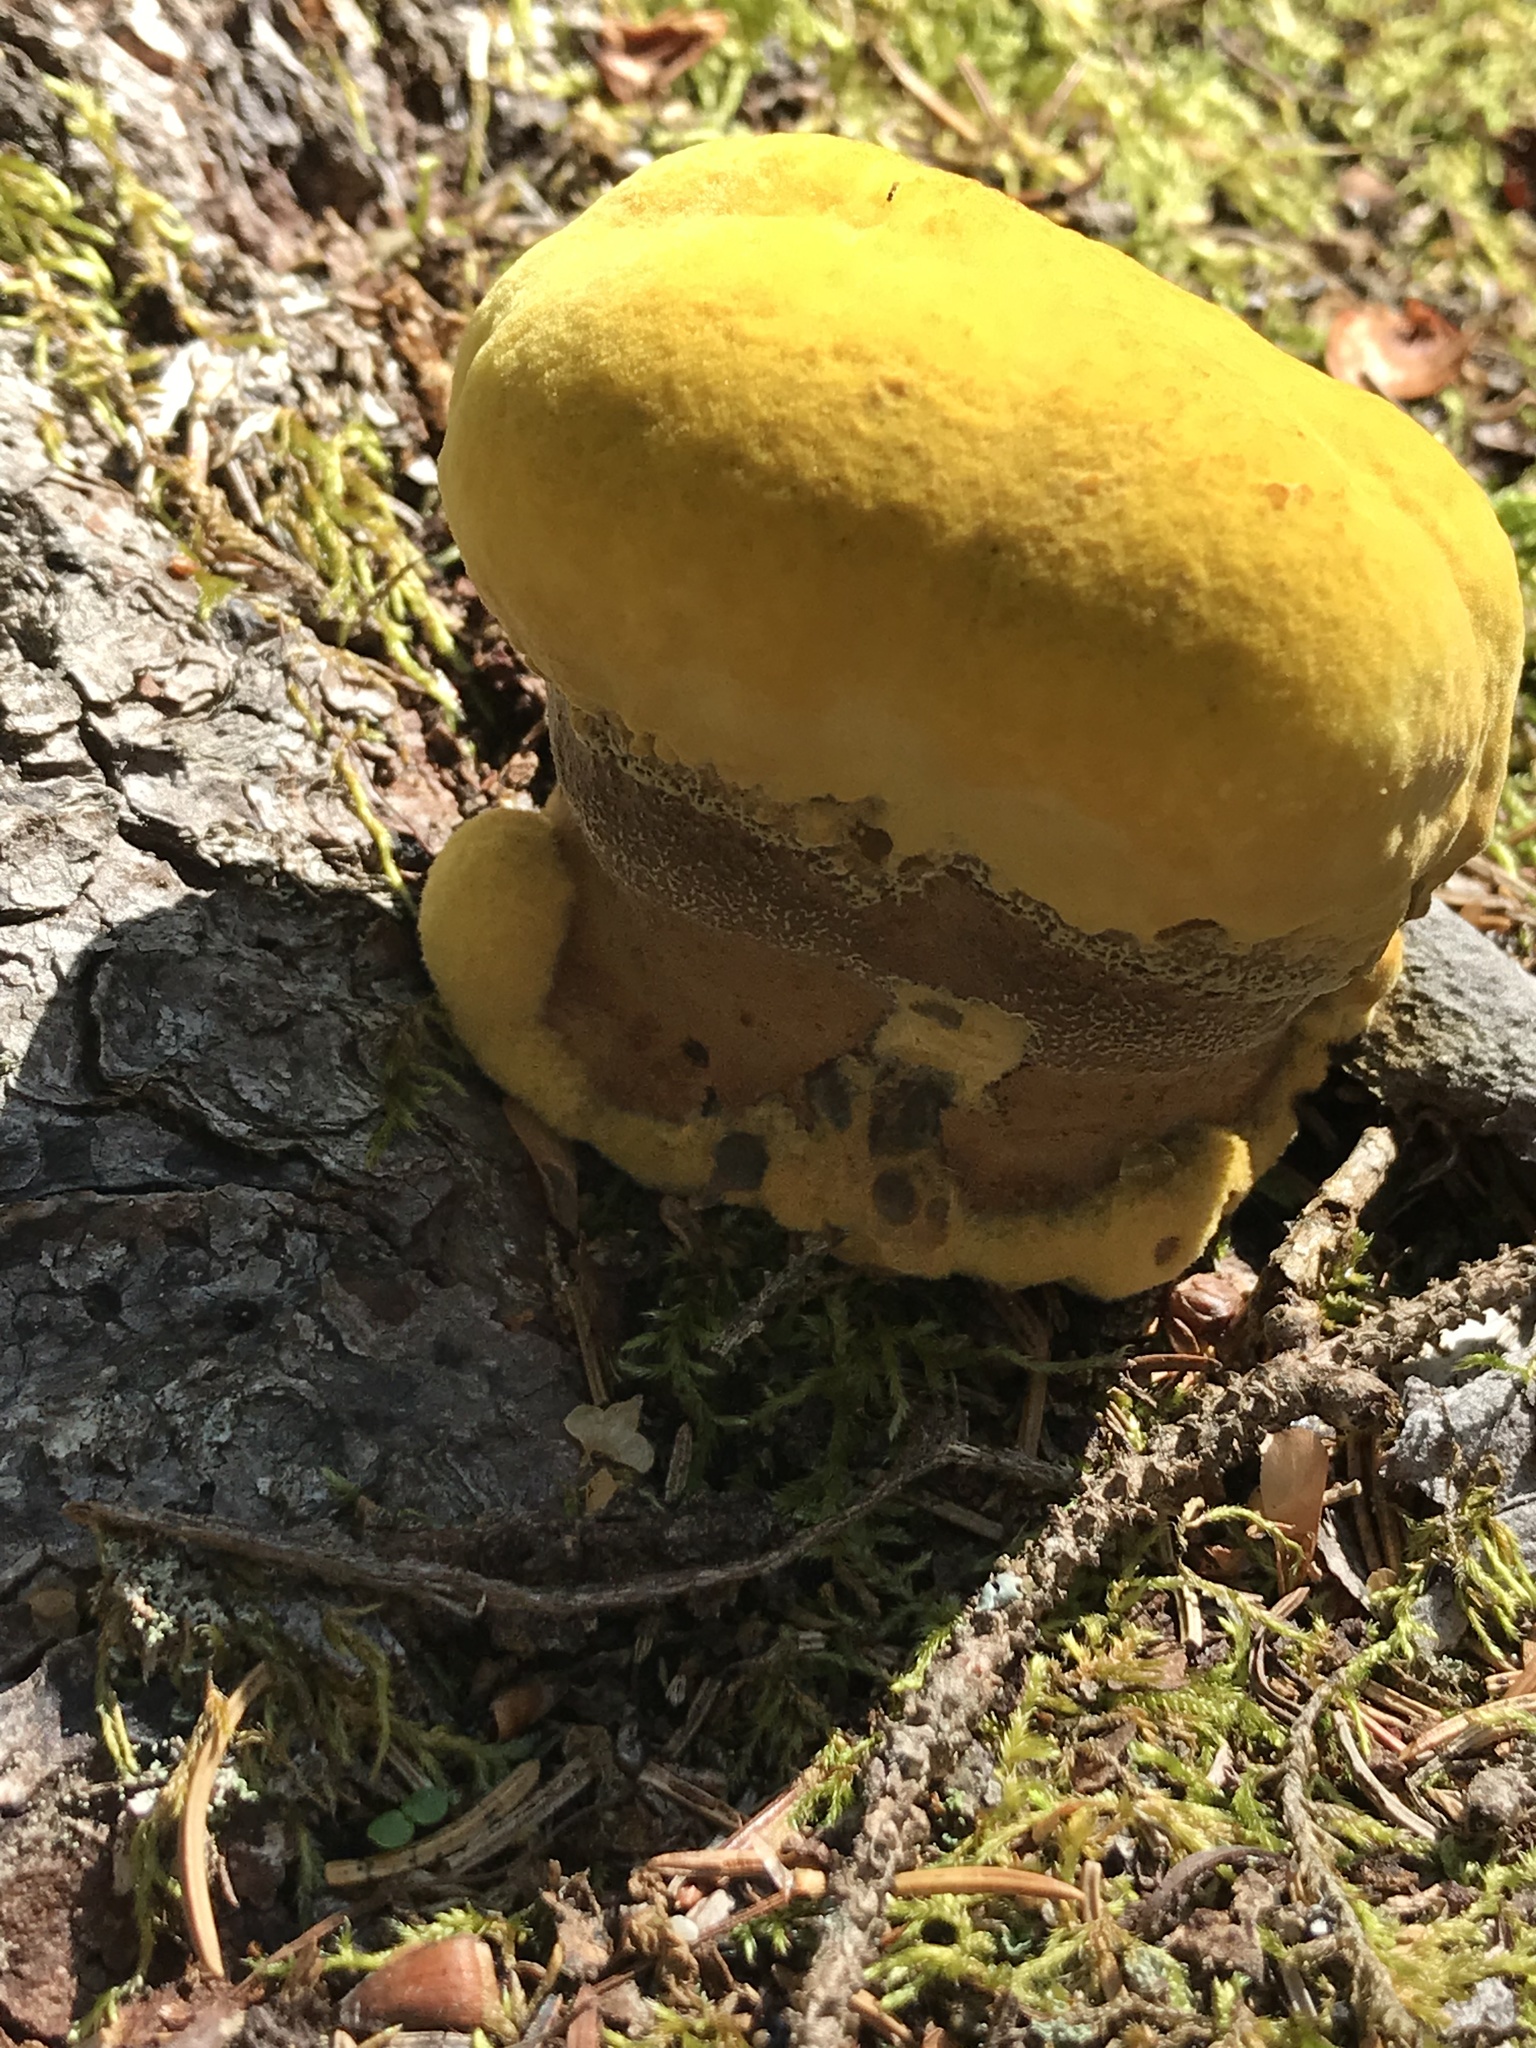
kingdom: Fungi
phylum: Basidiomycota
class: Agaricomycetes
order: Polyporales
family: Laetiporaceae
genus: Phaeolus
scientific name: Phaeolus schweinitzii
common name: Dyer's mazegill
